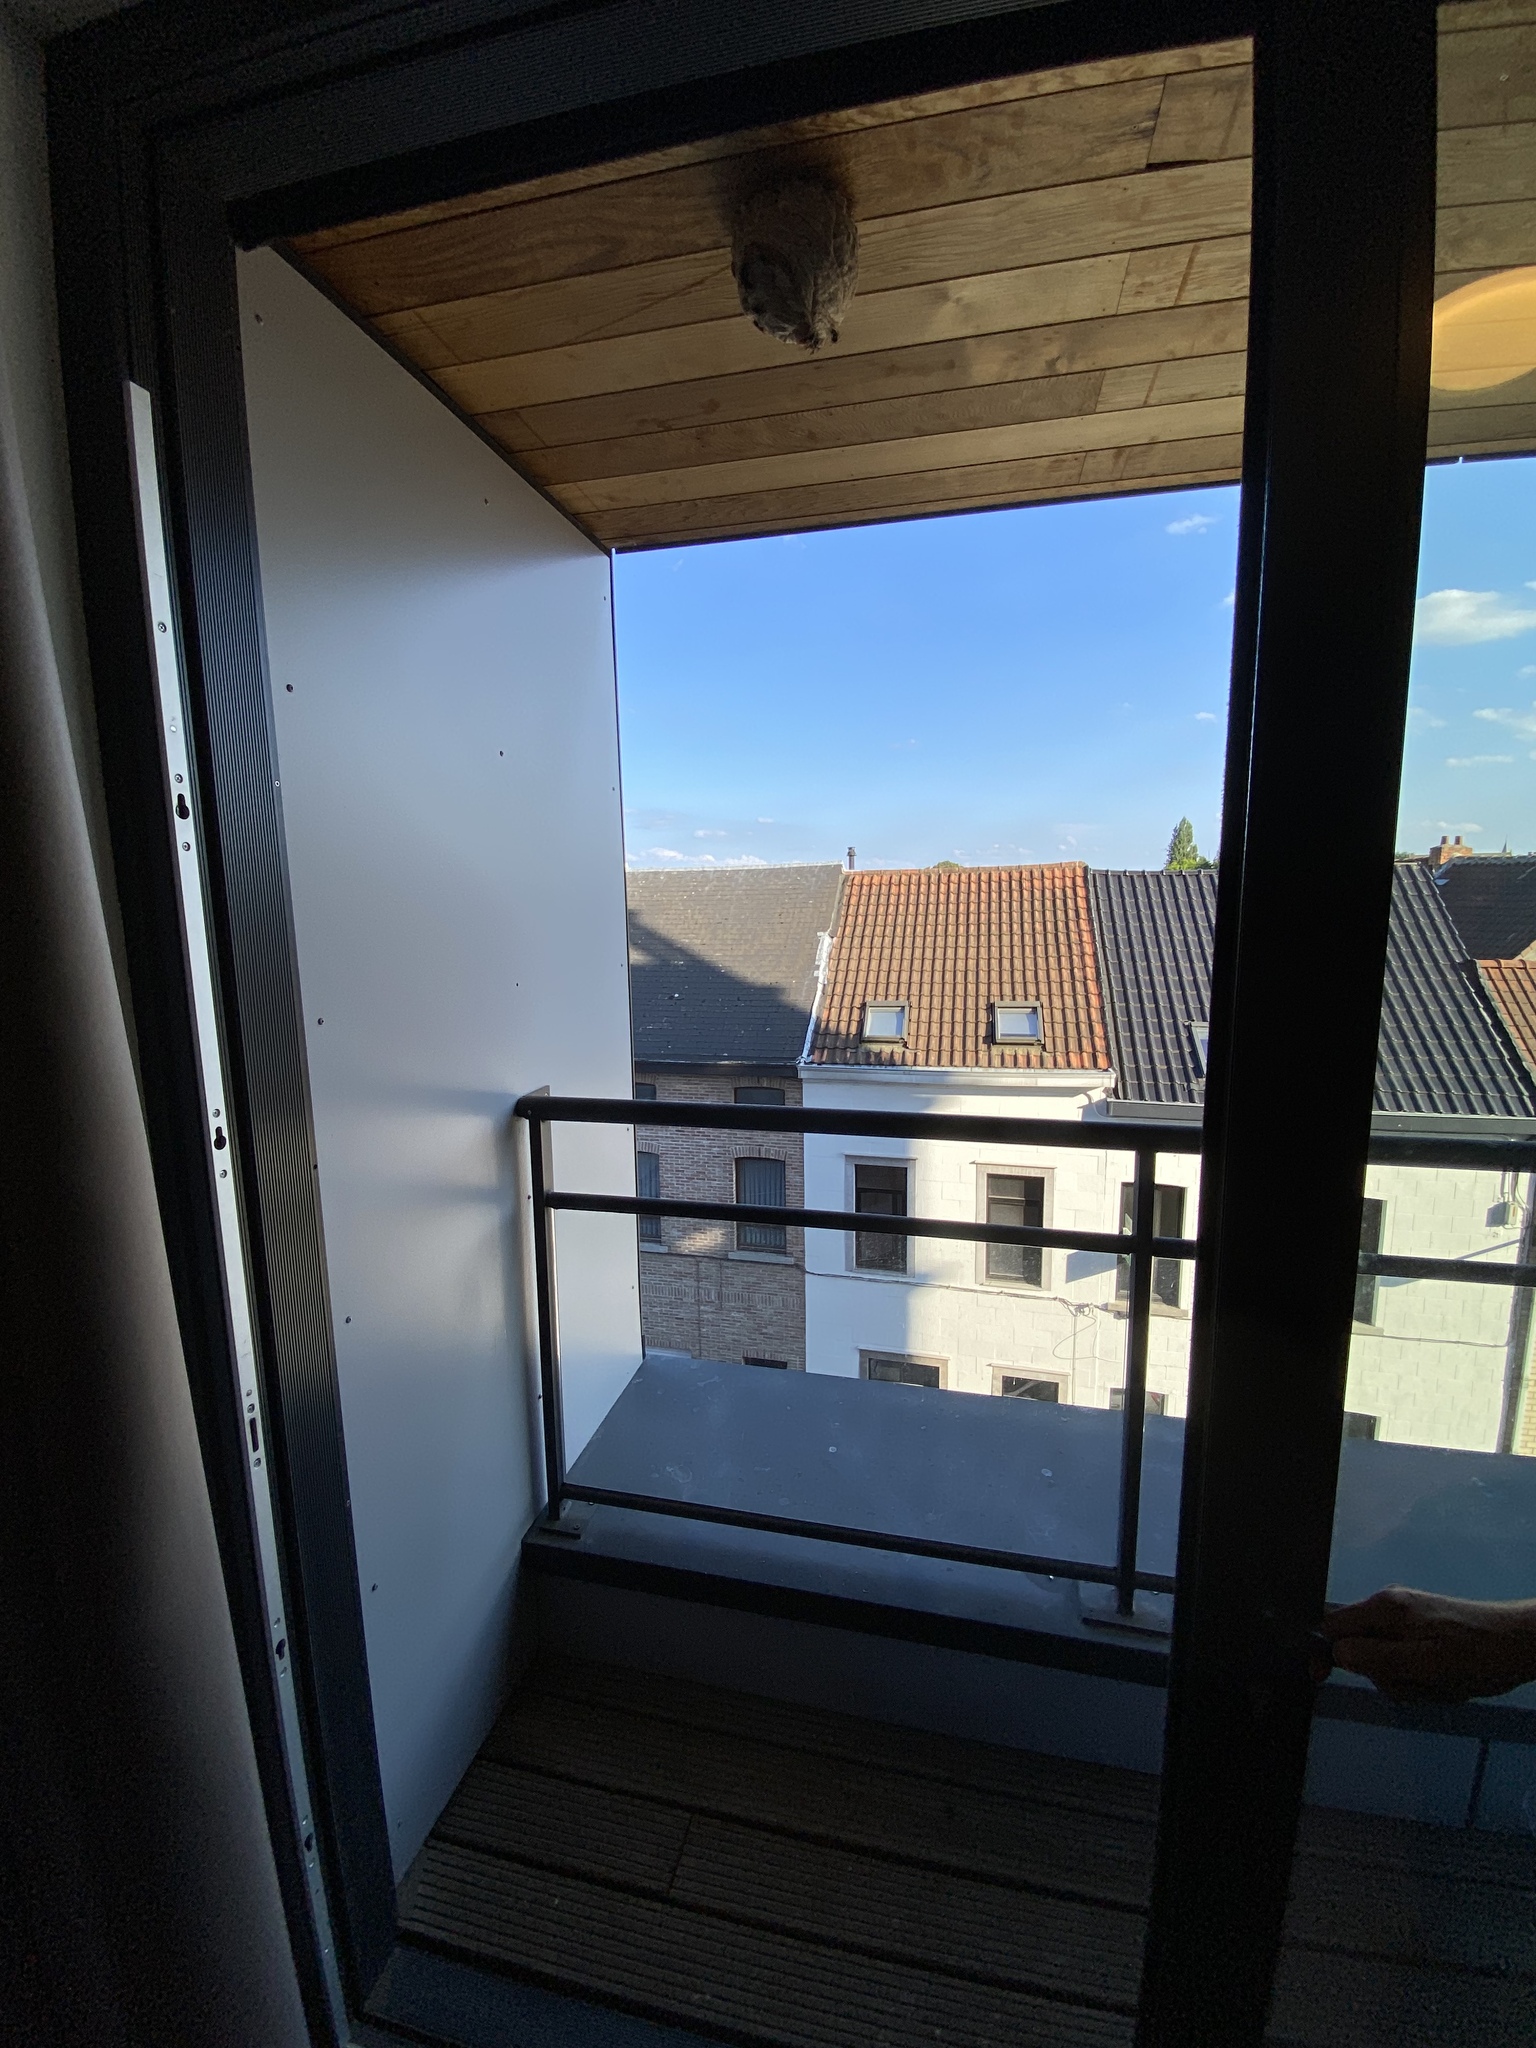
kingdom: Animalia
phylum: Arthropoda
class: Insecta
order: Hymenoptera
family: Vespidae
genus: Vespa
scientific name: Vespa velutina
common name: Asian hornet
